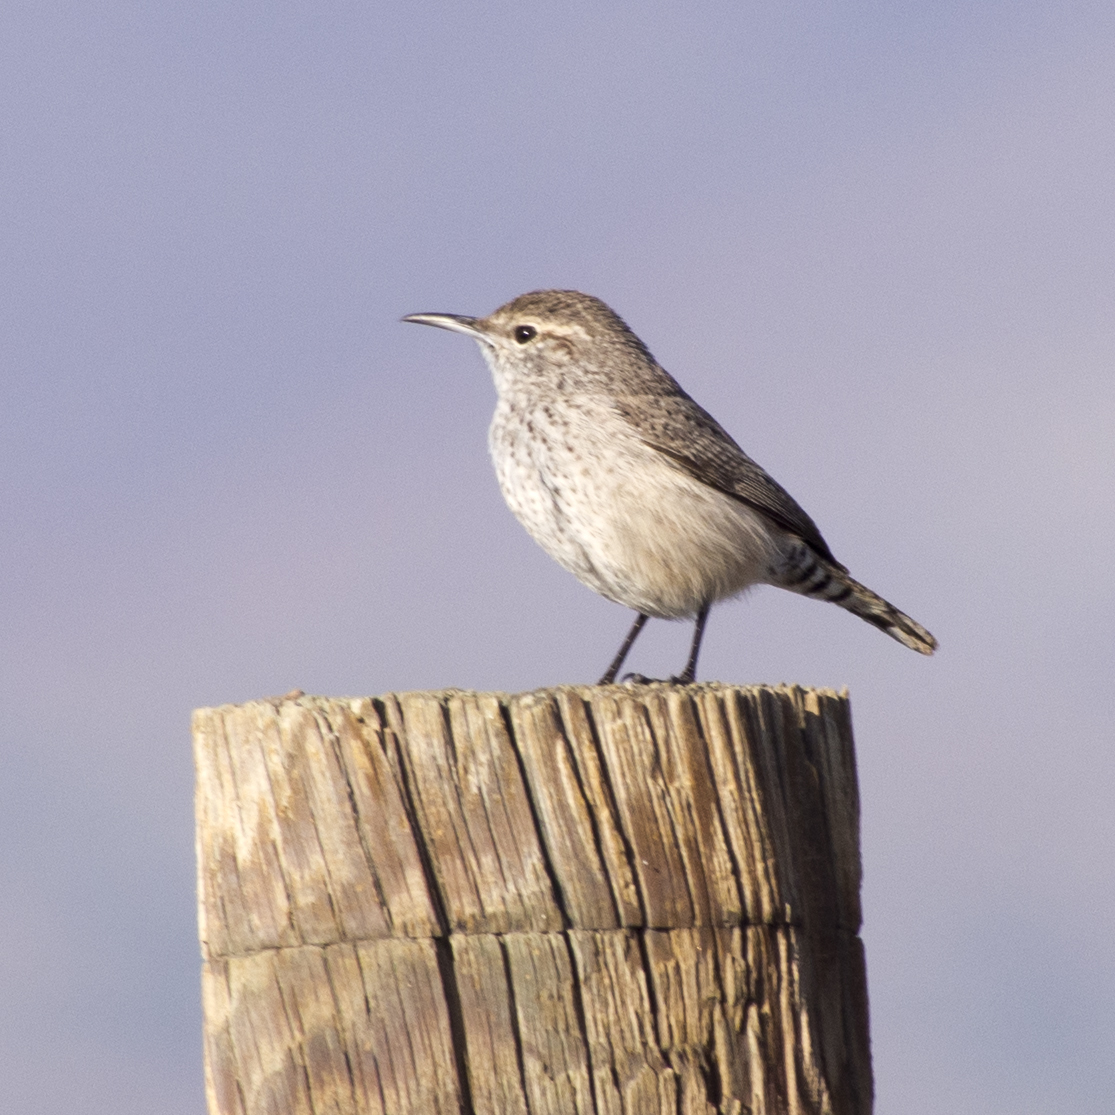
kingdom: Animalia
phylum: Chordata
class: Aves
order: Passeriformes
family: Troglodytidae
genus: Salpinctes
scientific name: Salpinctes obsoletus
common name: Rock wren
